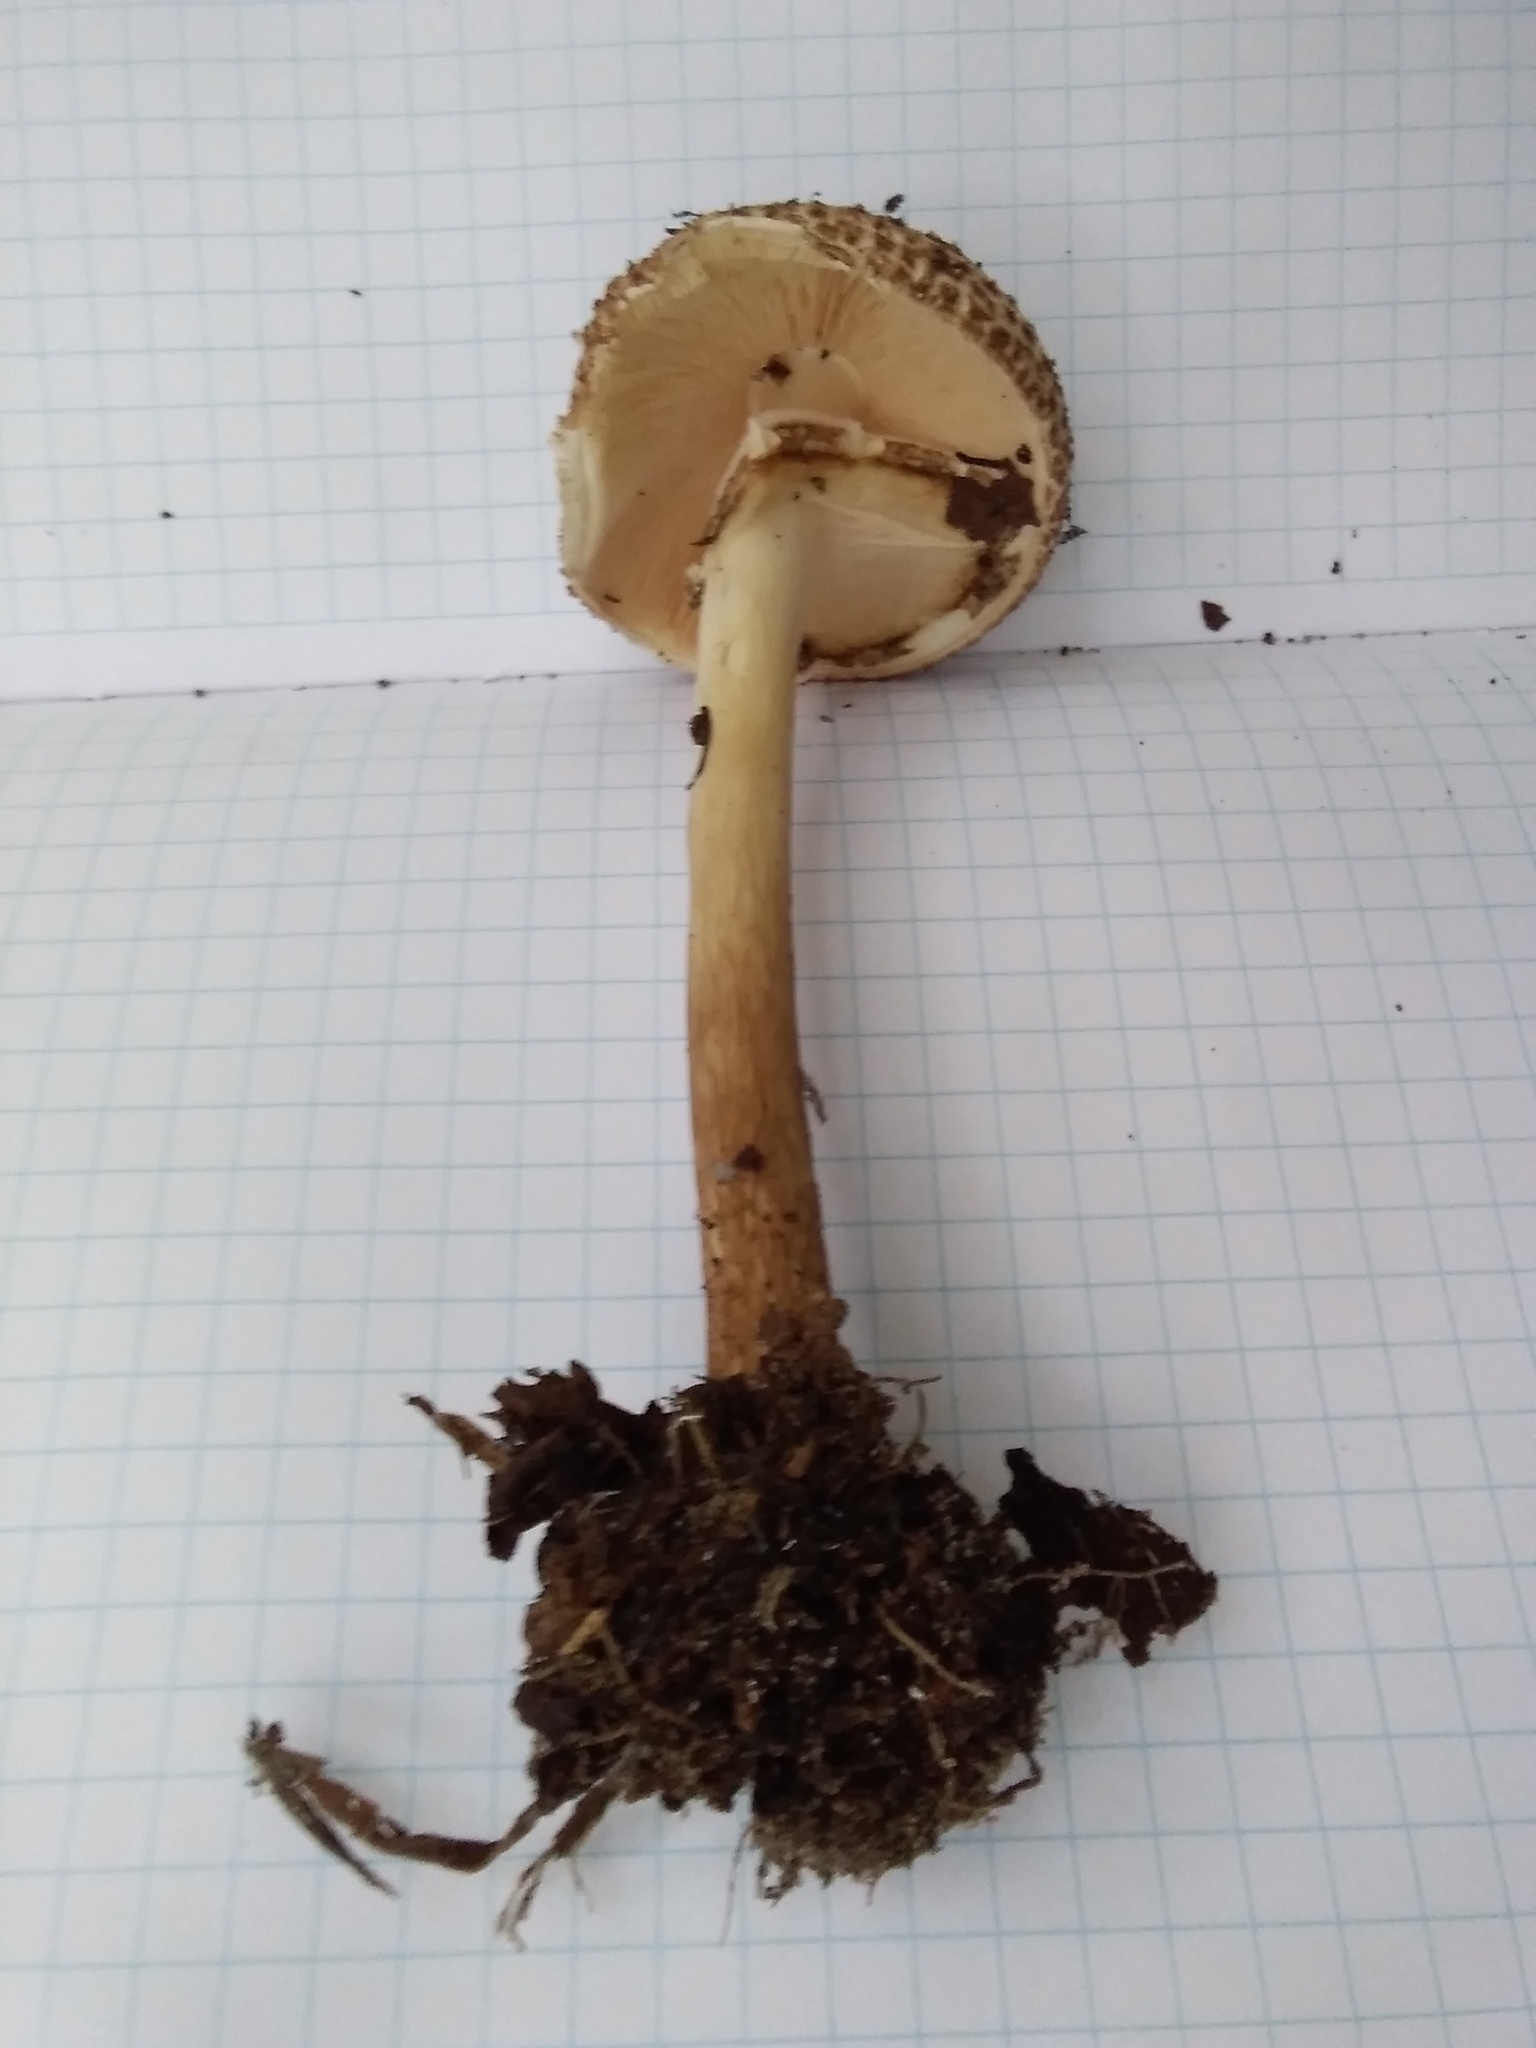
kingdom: Fungi
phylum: Basidiomycota
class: Agaricomycetes
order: Agaricales
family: Agaricaceae
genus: Echinoderma
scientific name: Echinoderma asperum
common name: Freckled dapperling
